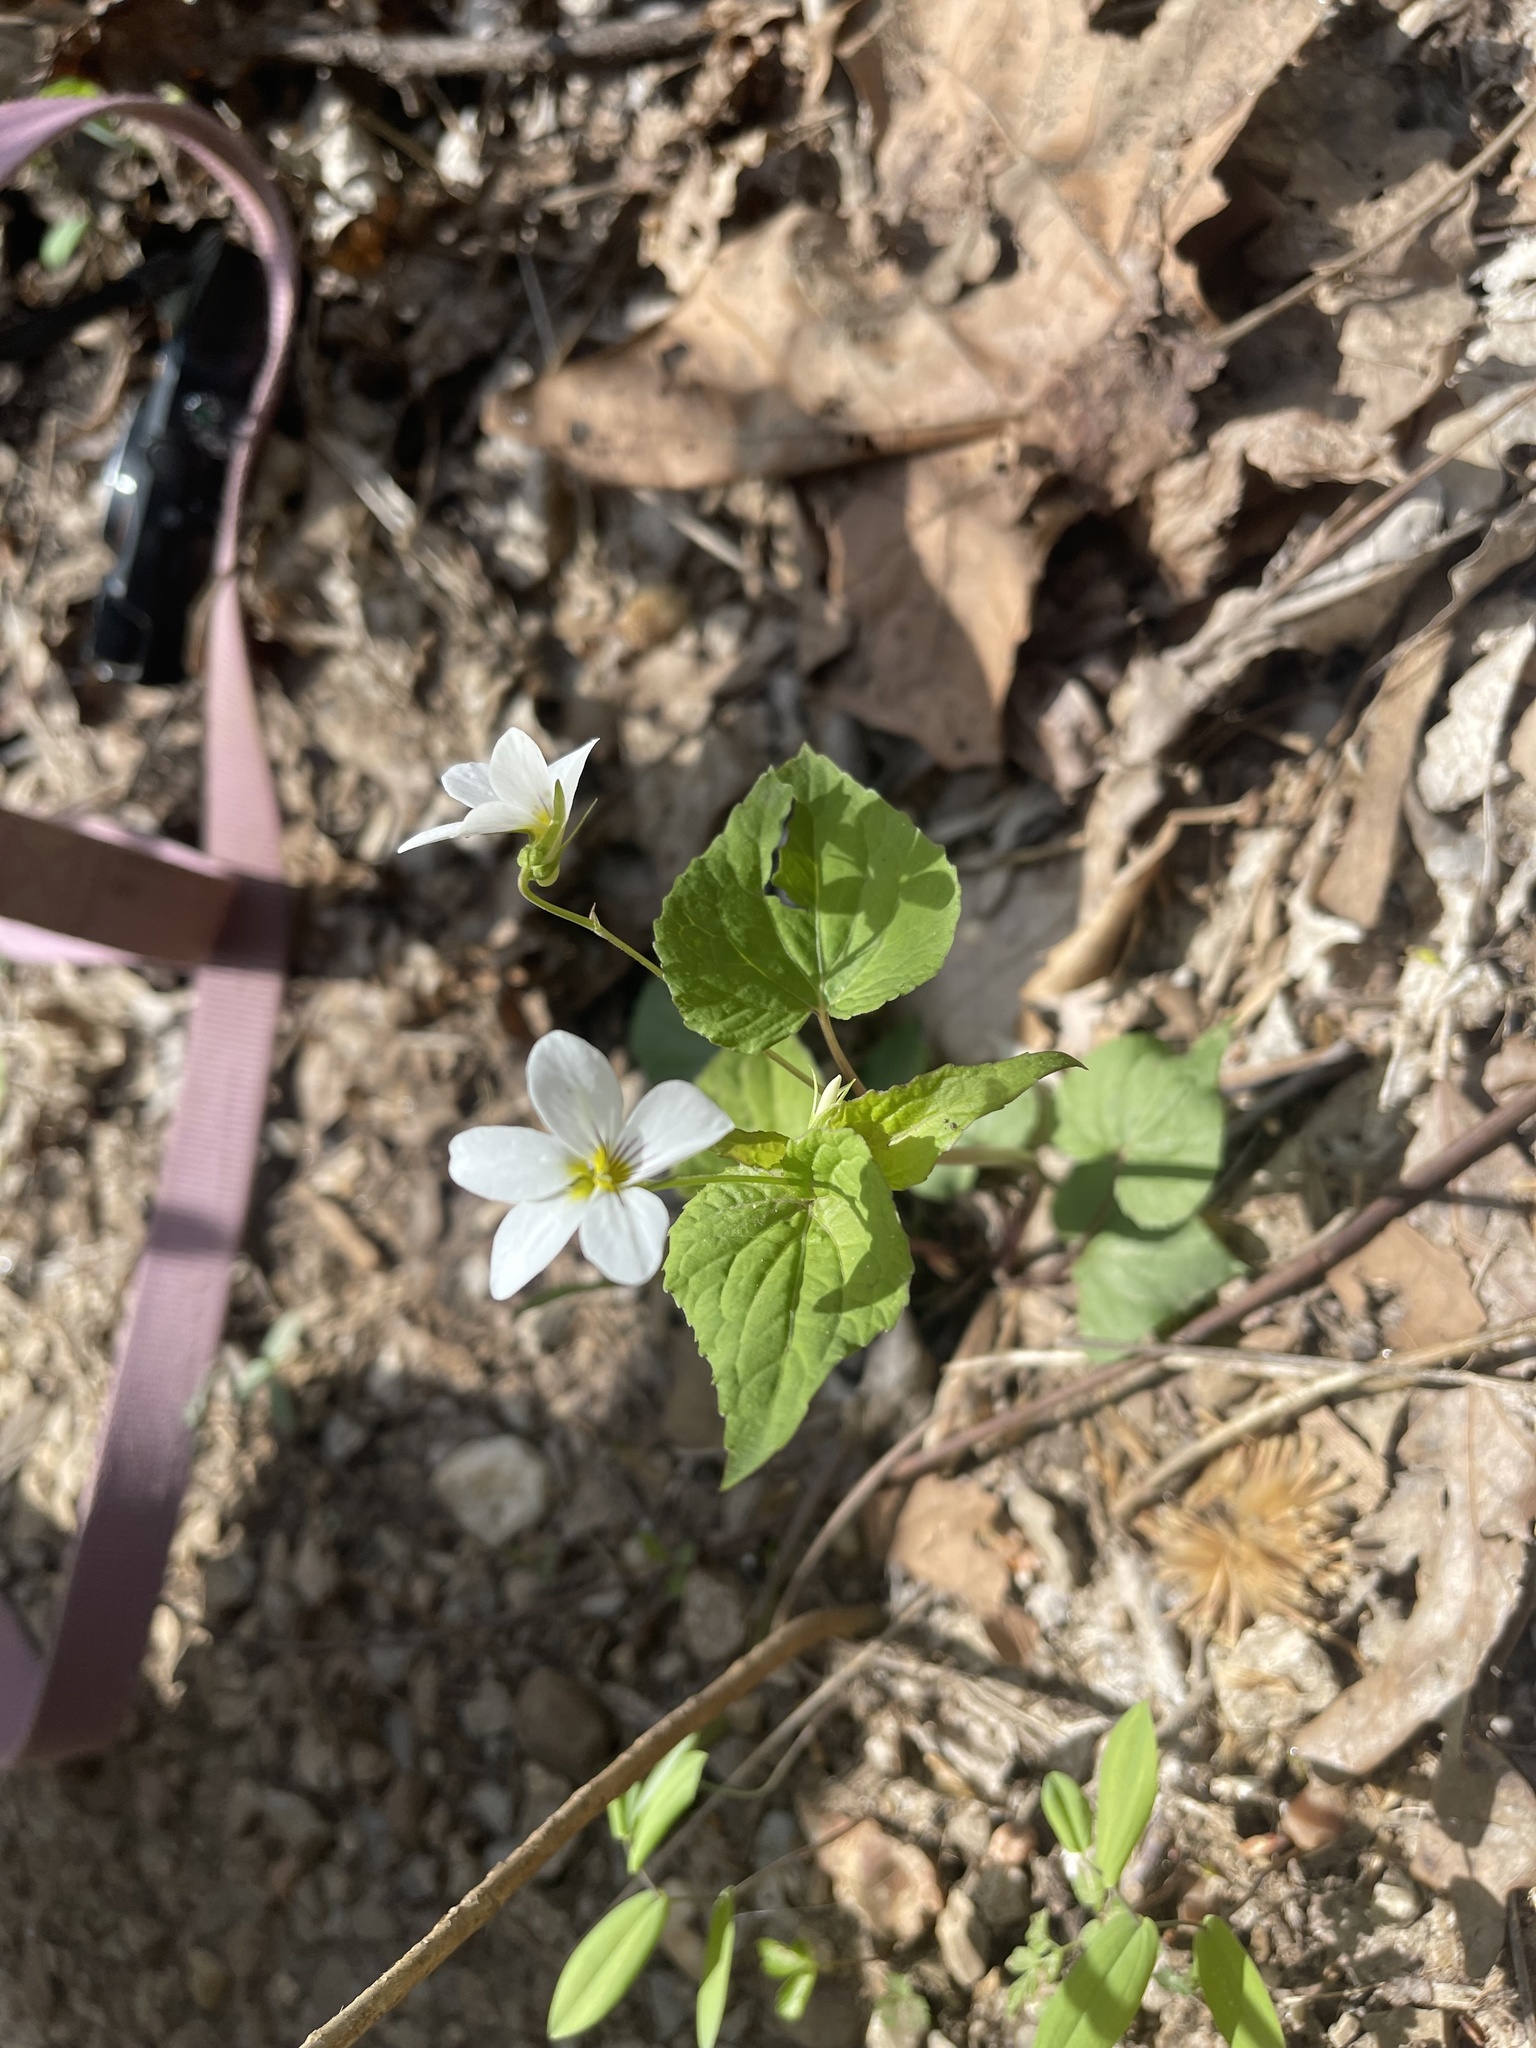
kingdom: Plantae
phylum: Tracheophyta
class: Magnoliopsida
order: Malpighiales
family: Violaceae
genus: Viola
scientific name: Viola canadensis
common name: Canada violet
